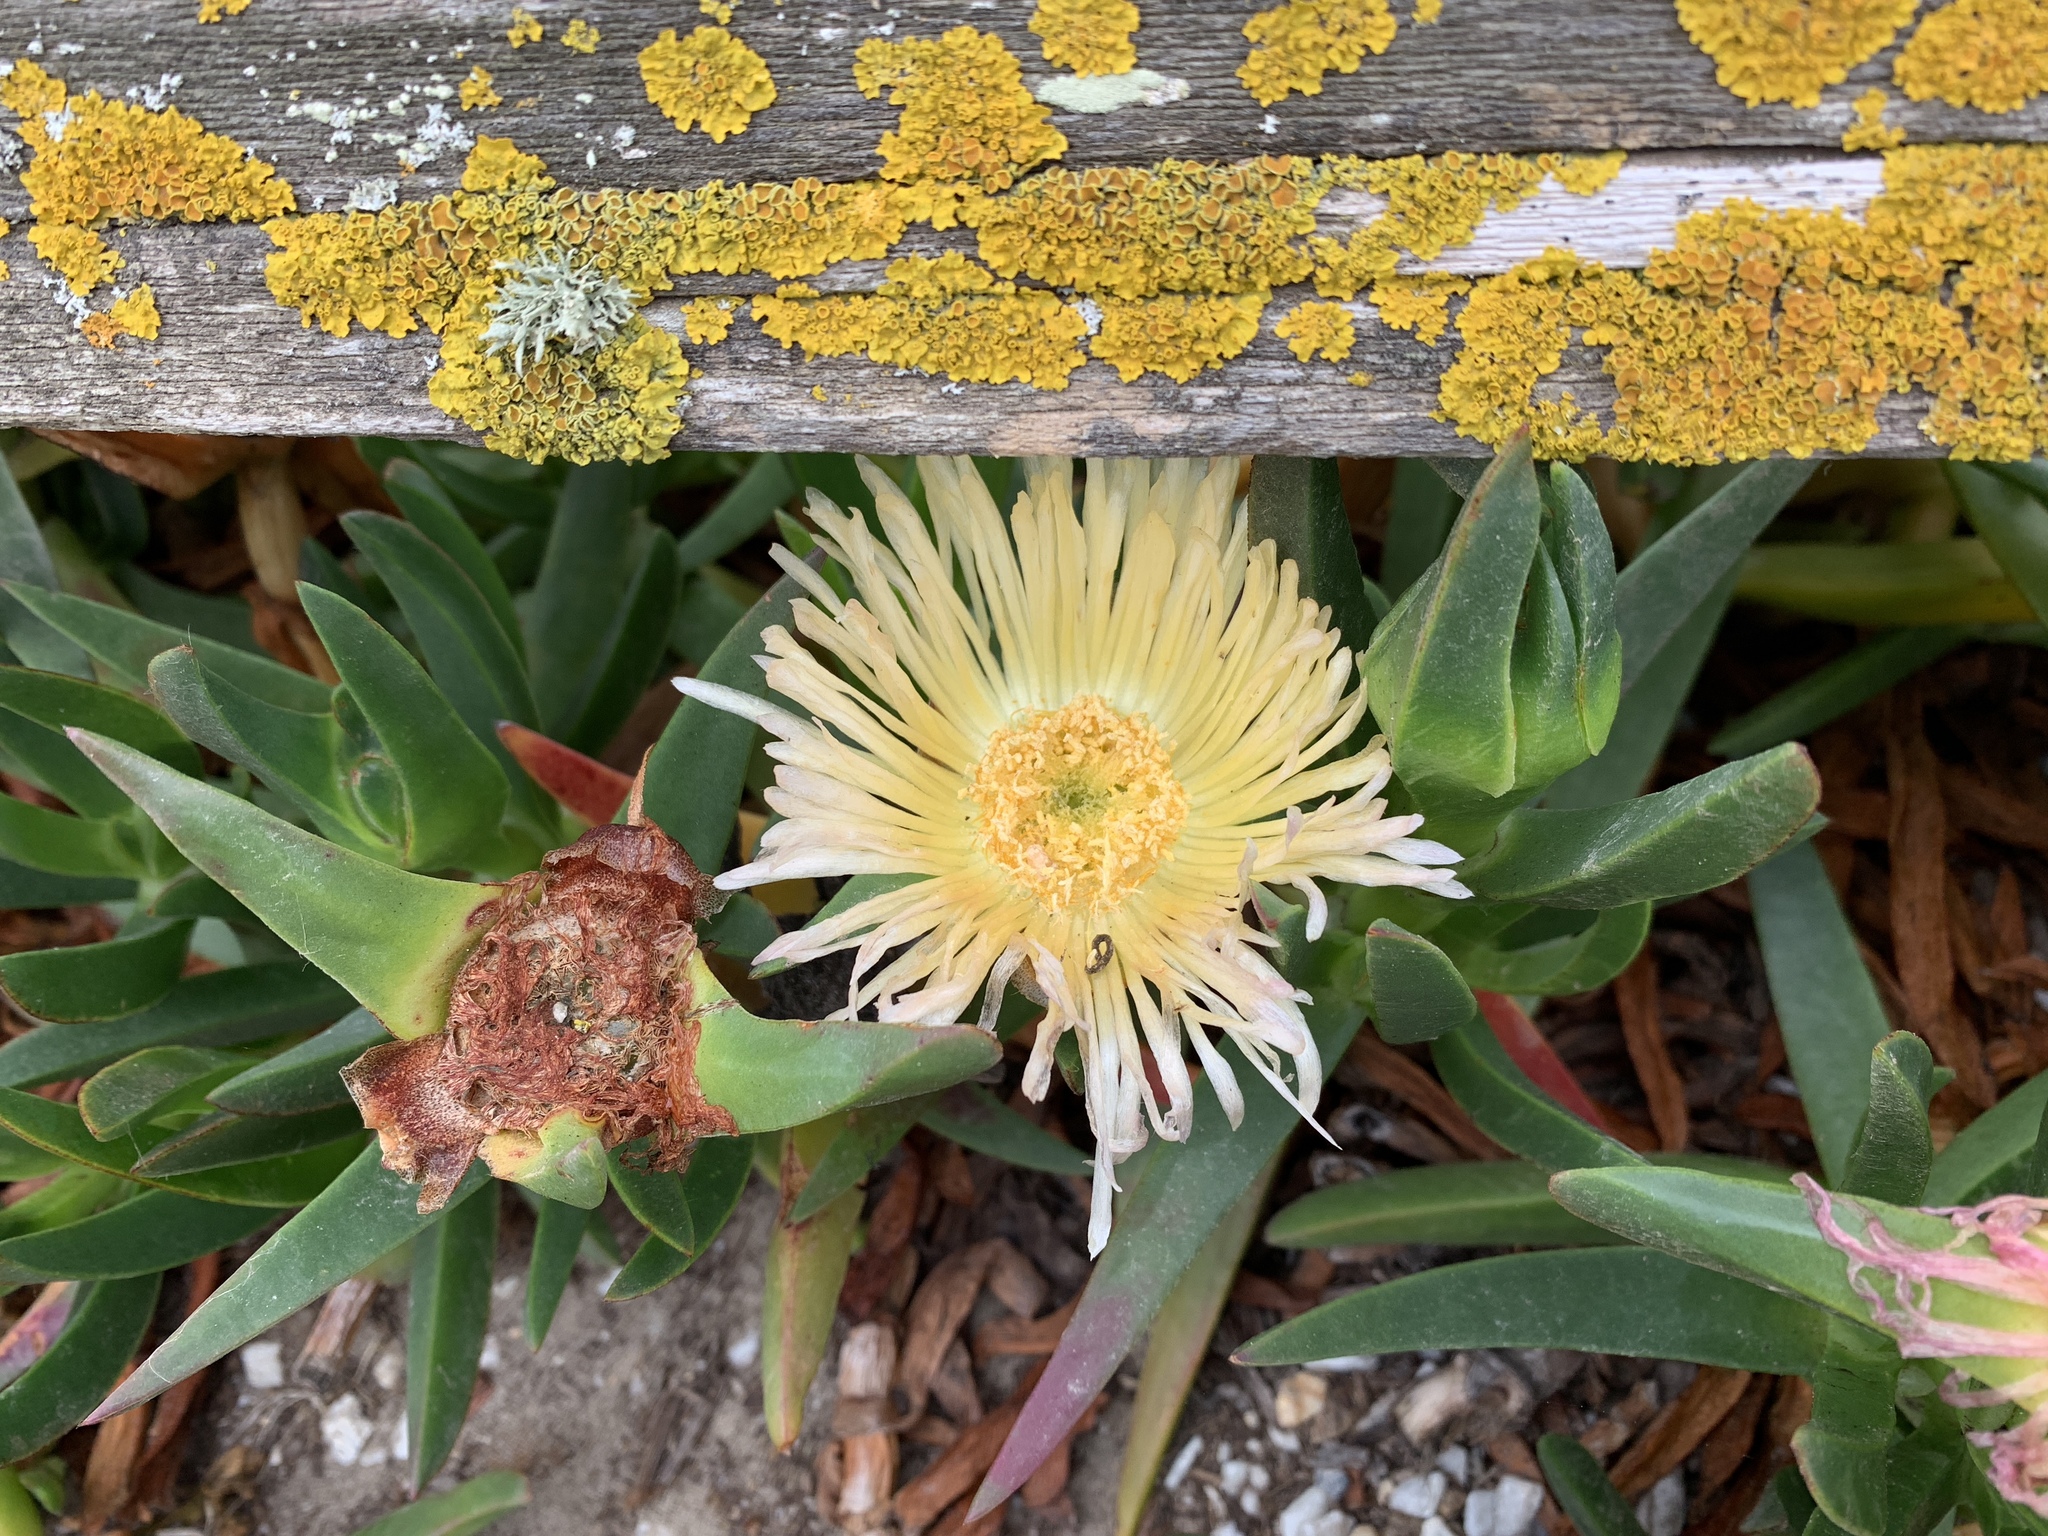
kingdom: Plantae
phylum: Tracheophyta
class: Magnoliopsida
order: Caryophyllales
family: Aizoaceae
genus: Carpobrotus
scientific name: Carpobrotus edulis
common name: Hottentot-fig
